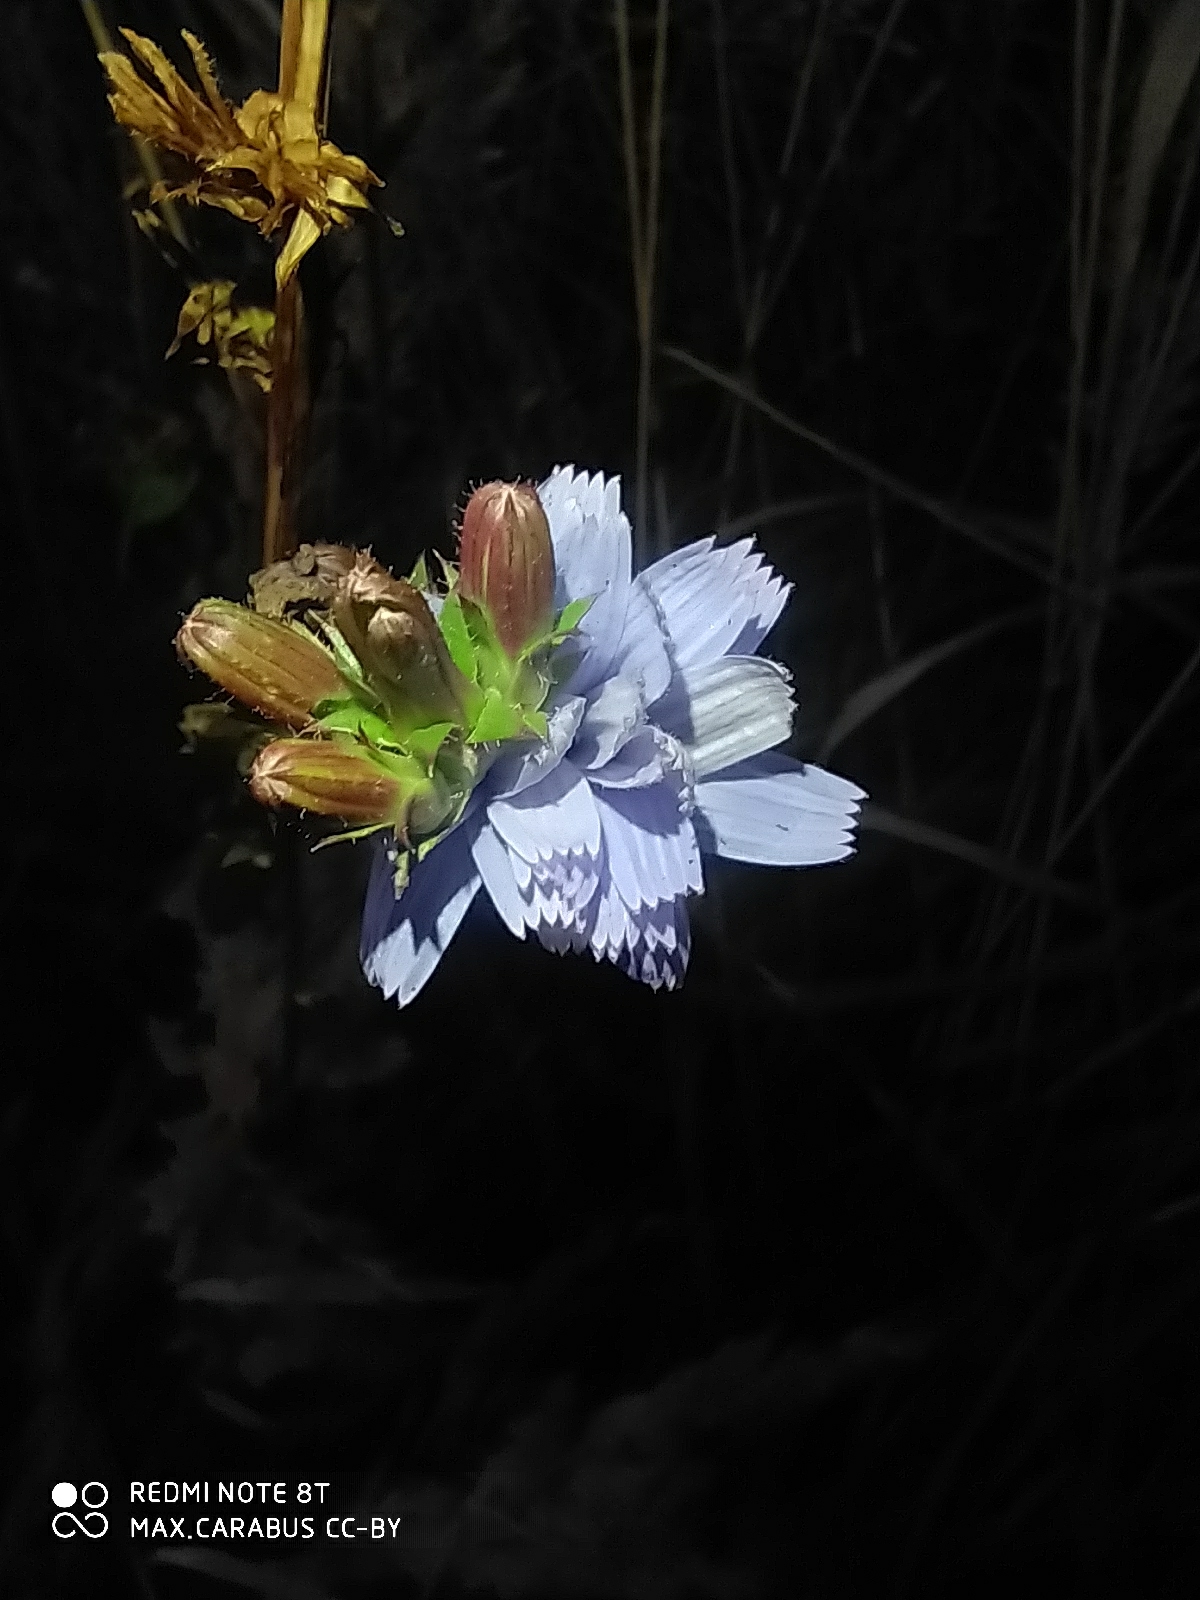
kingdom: Plantae
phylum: Tracheophyta
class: Magnoliopsida
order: Asterales
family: Asteraceae
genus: Cichorium
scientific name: Cichorium intybus
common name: Chicory
